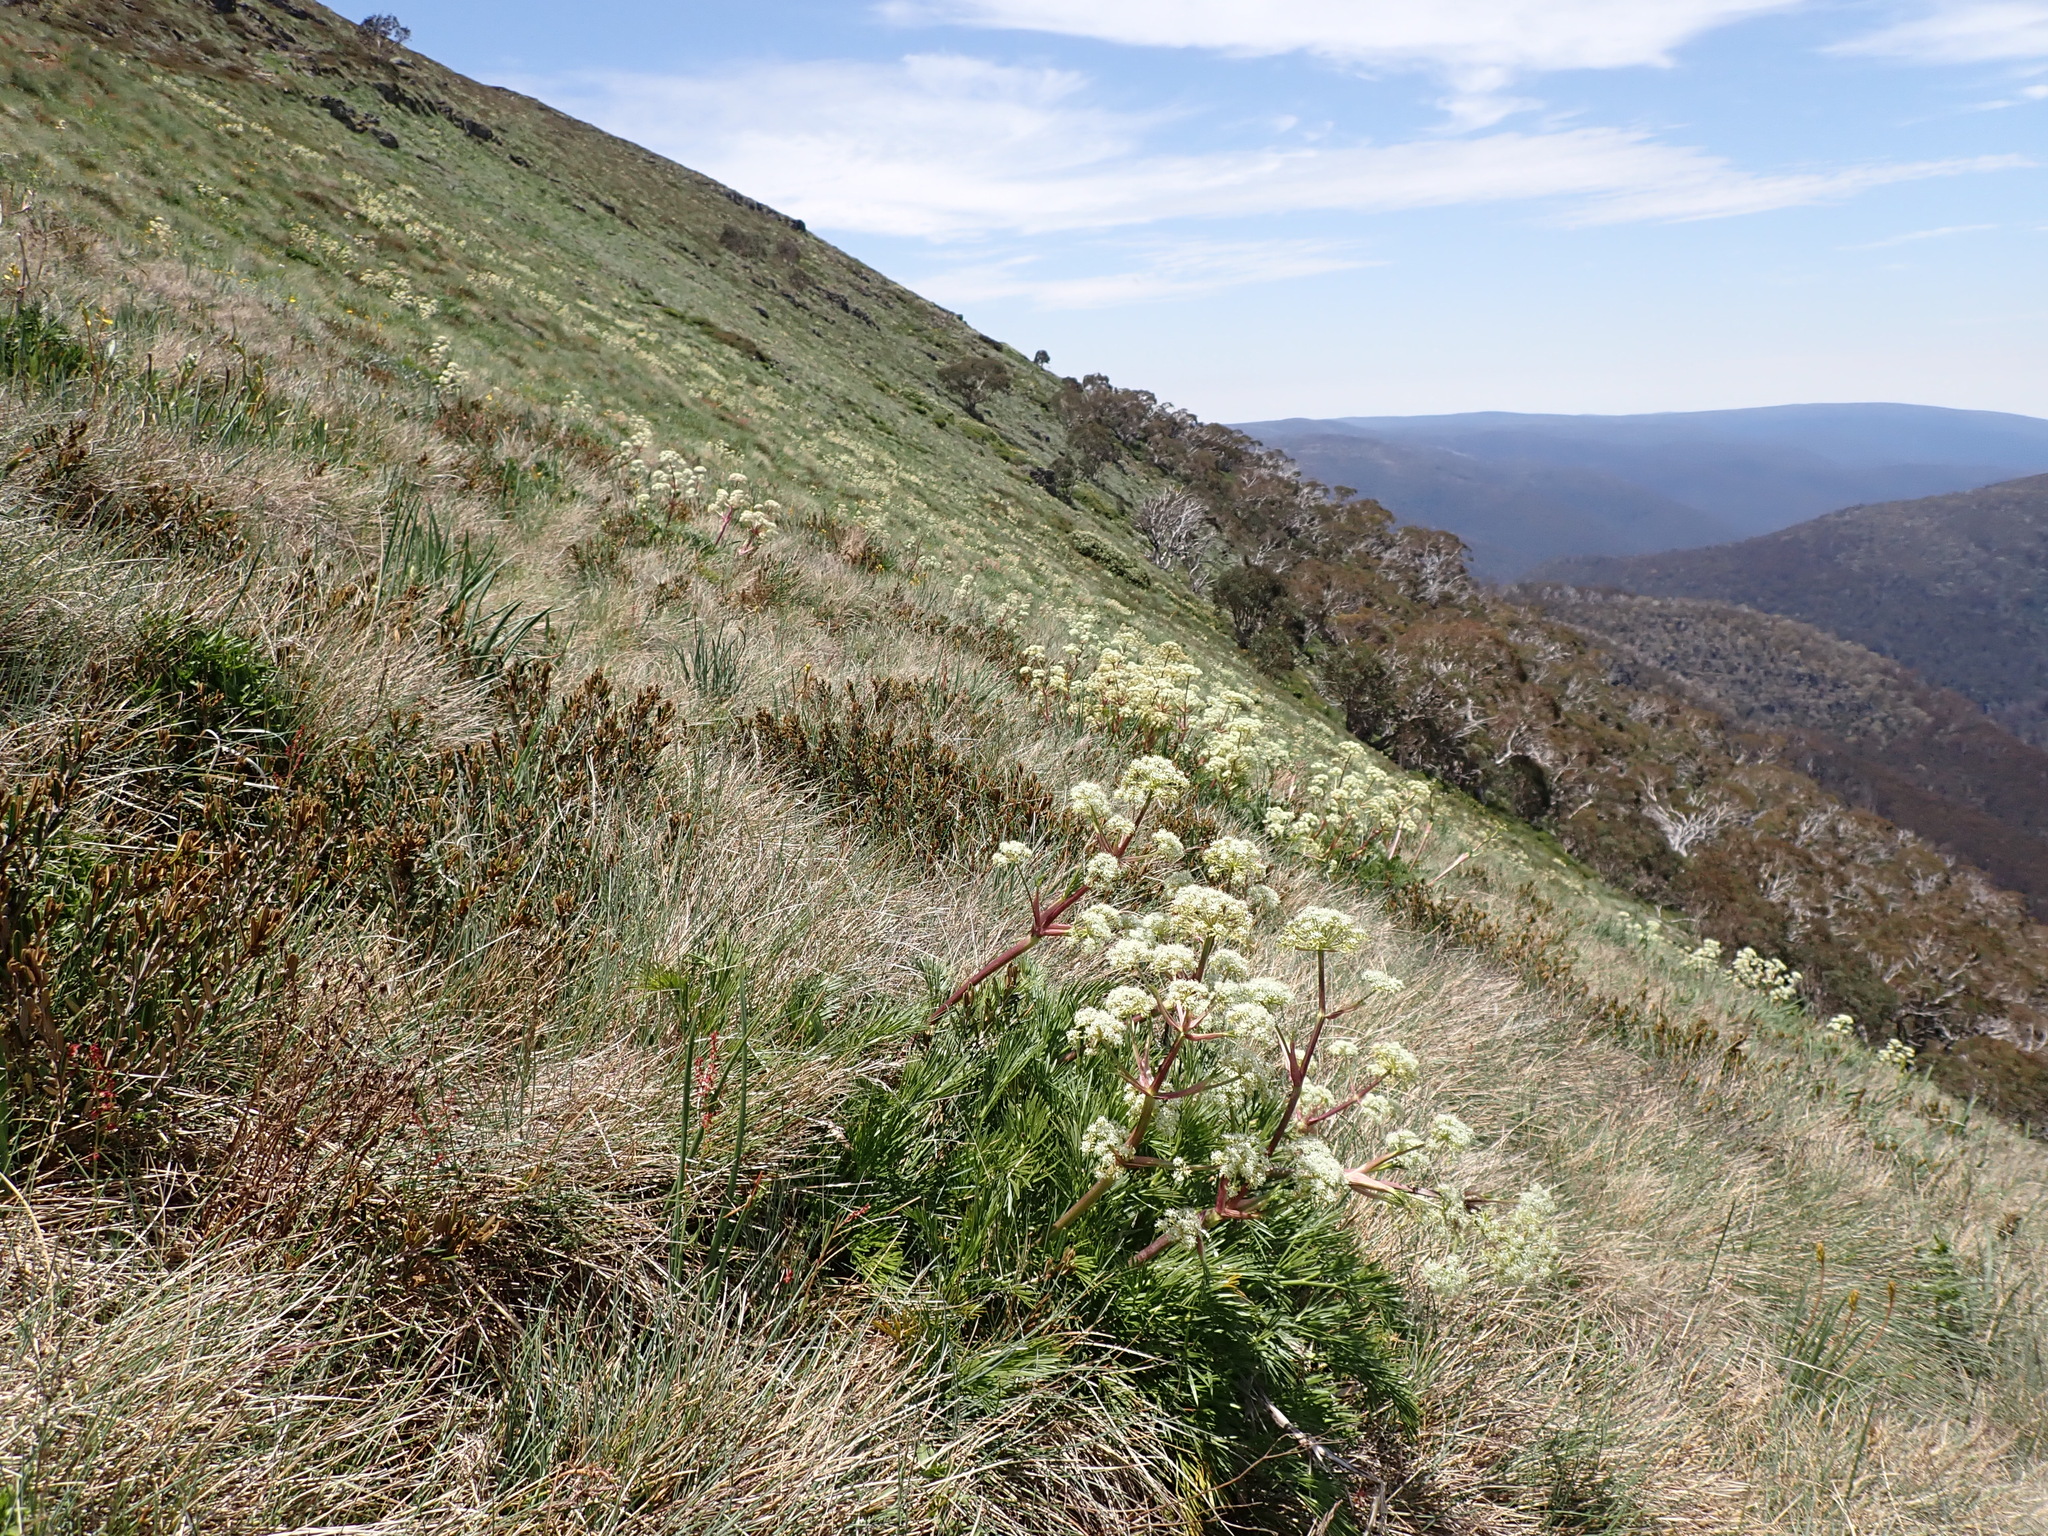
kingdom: Plantae
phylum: Tracheophyta
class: Magnoliopsida
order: Apiales
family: Apiaceae
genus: Aciphylla
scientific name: Aciphylla glacialis
